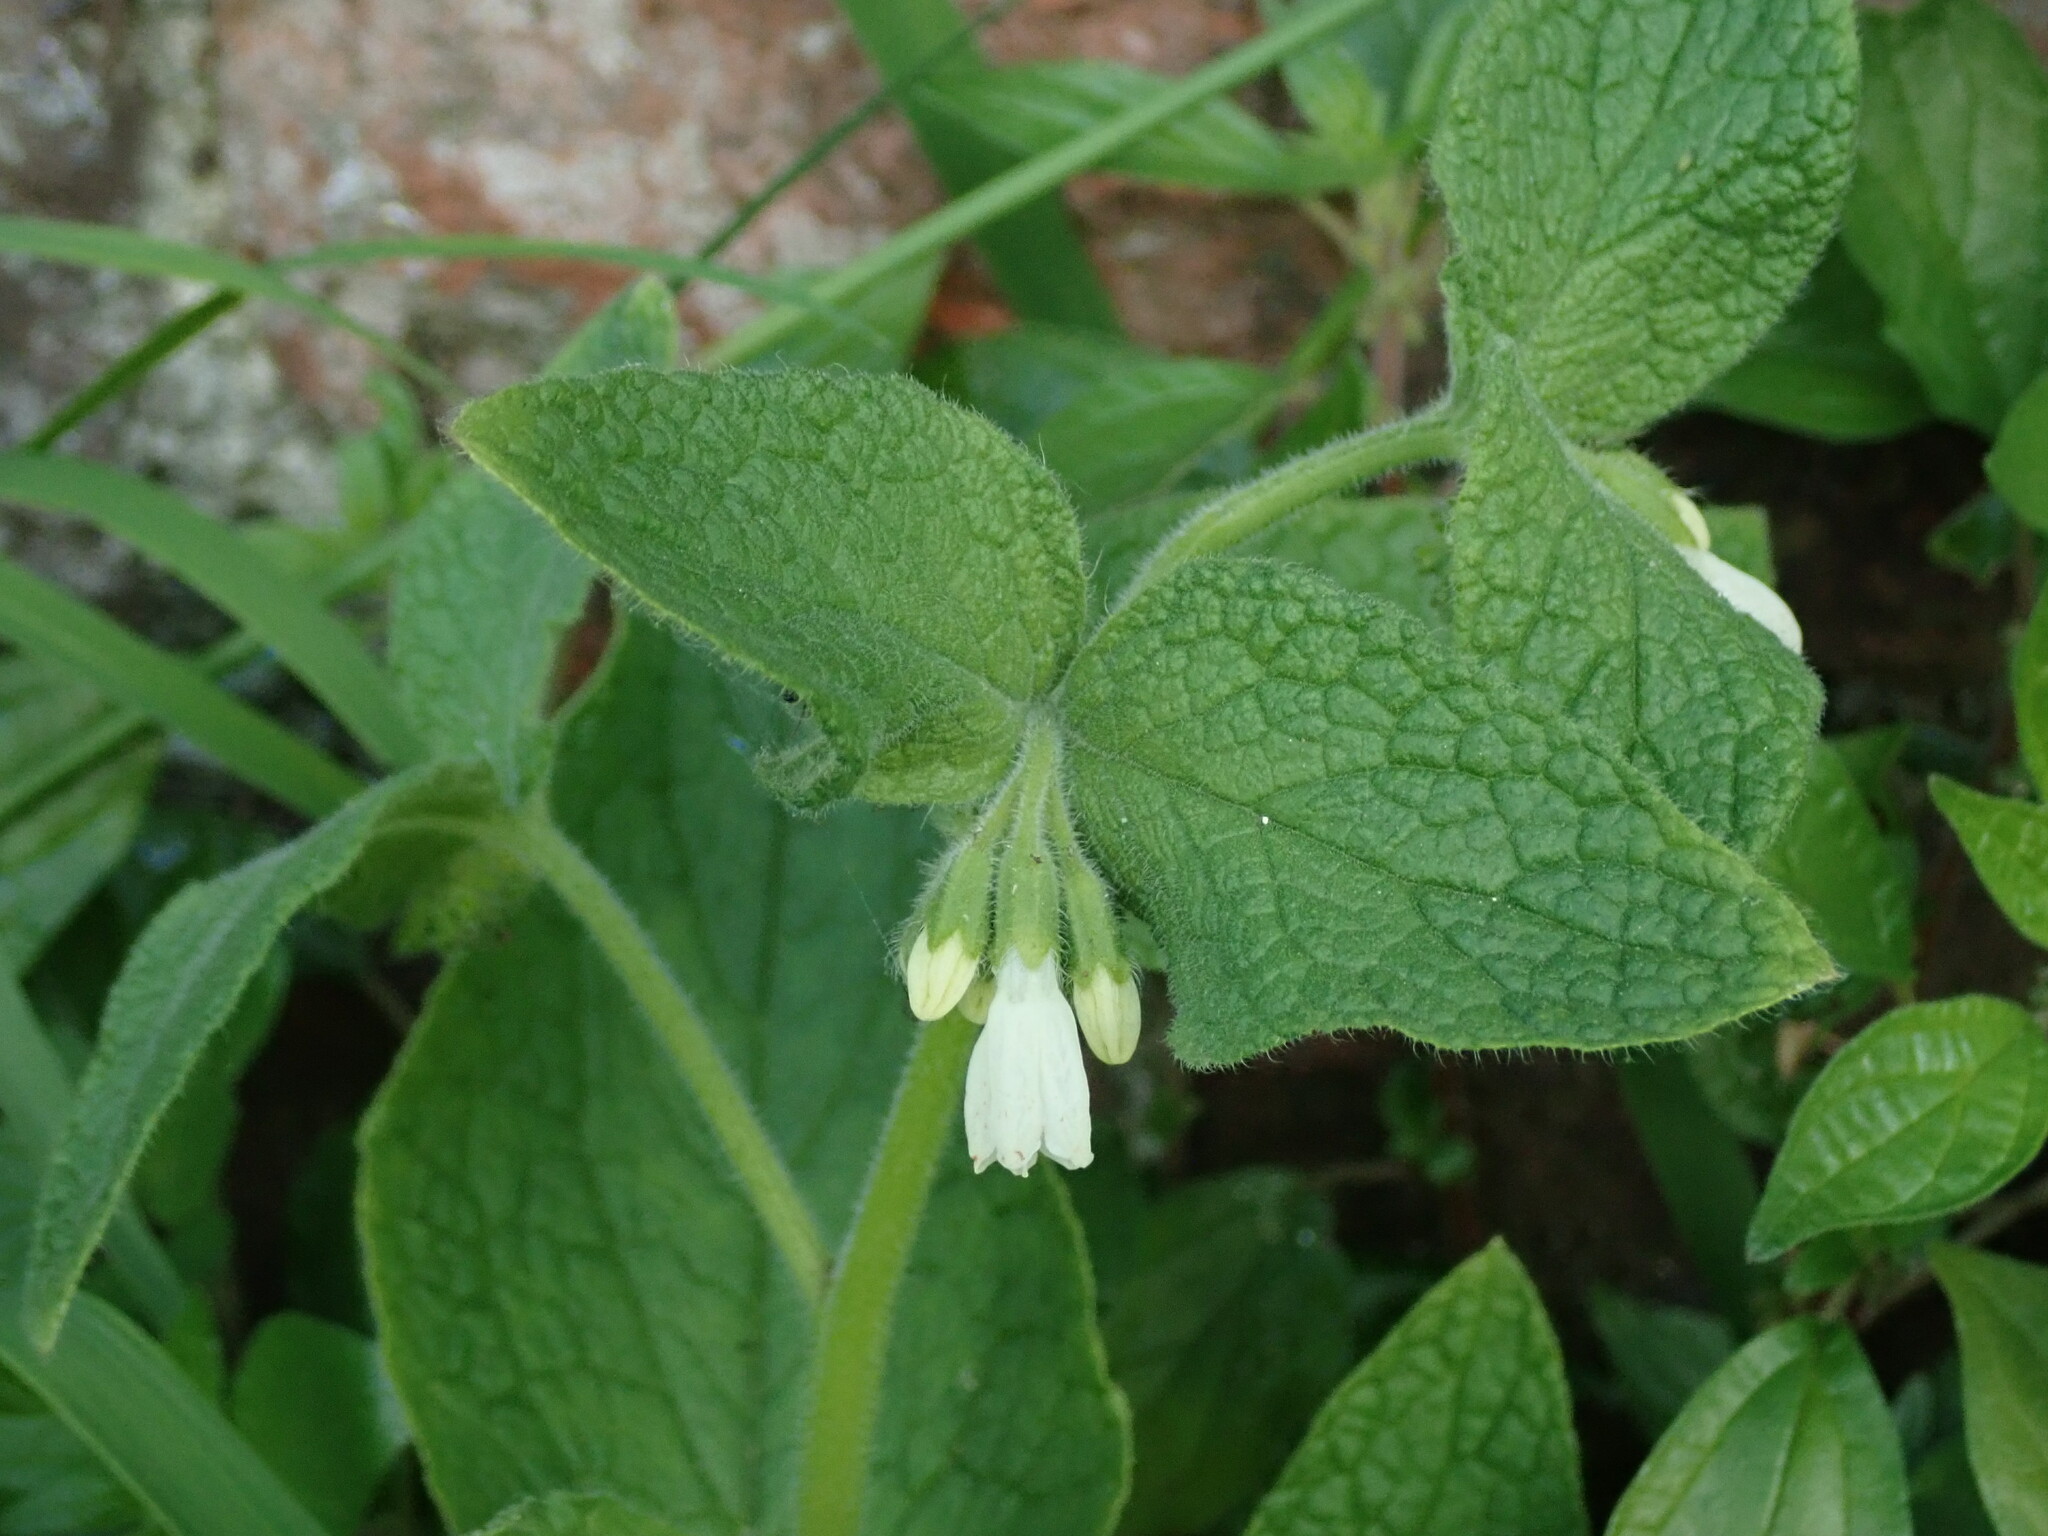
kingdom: Plantae
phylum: Tracheophyta
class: Magnoliopsida
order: Boraginales
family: Boraginaceae
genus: Symphytum
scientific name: Symphytum orientale
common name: White comfrey
